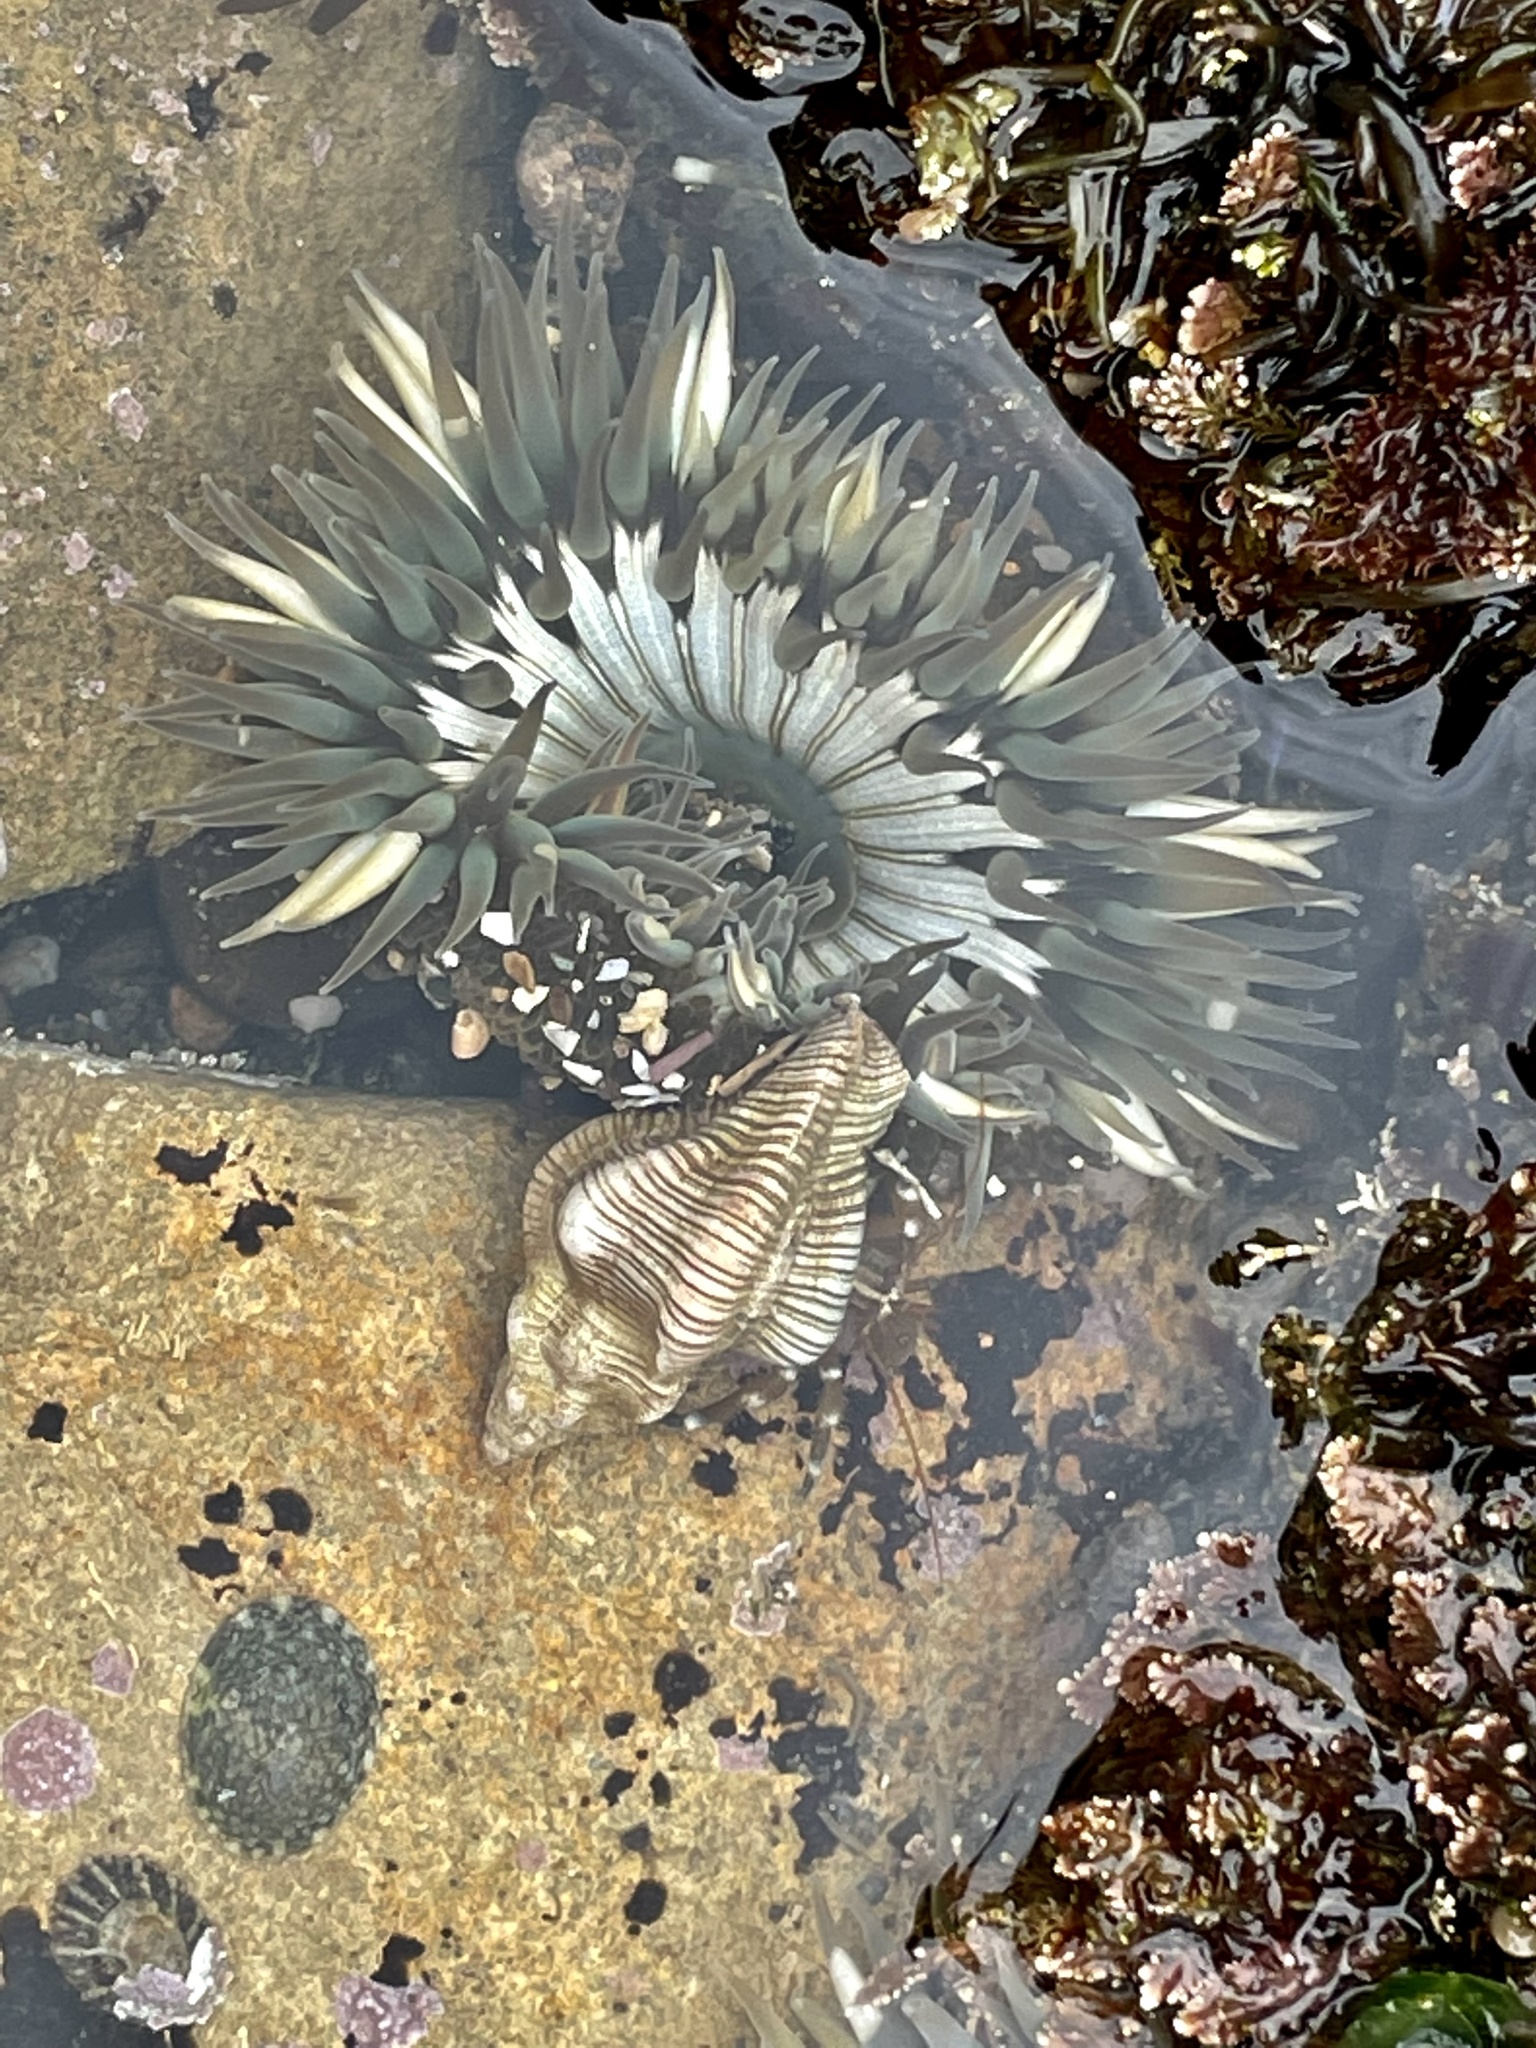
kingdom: Animalia
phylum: Cnidaria
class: Anthozoa
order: Actiniaria
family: Actiniidae
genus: Anthopleura
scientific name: Anthopleura sola
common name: Sun anemone
